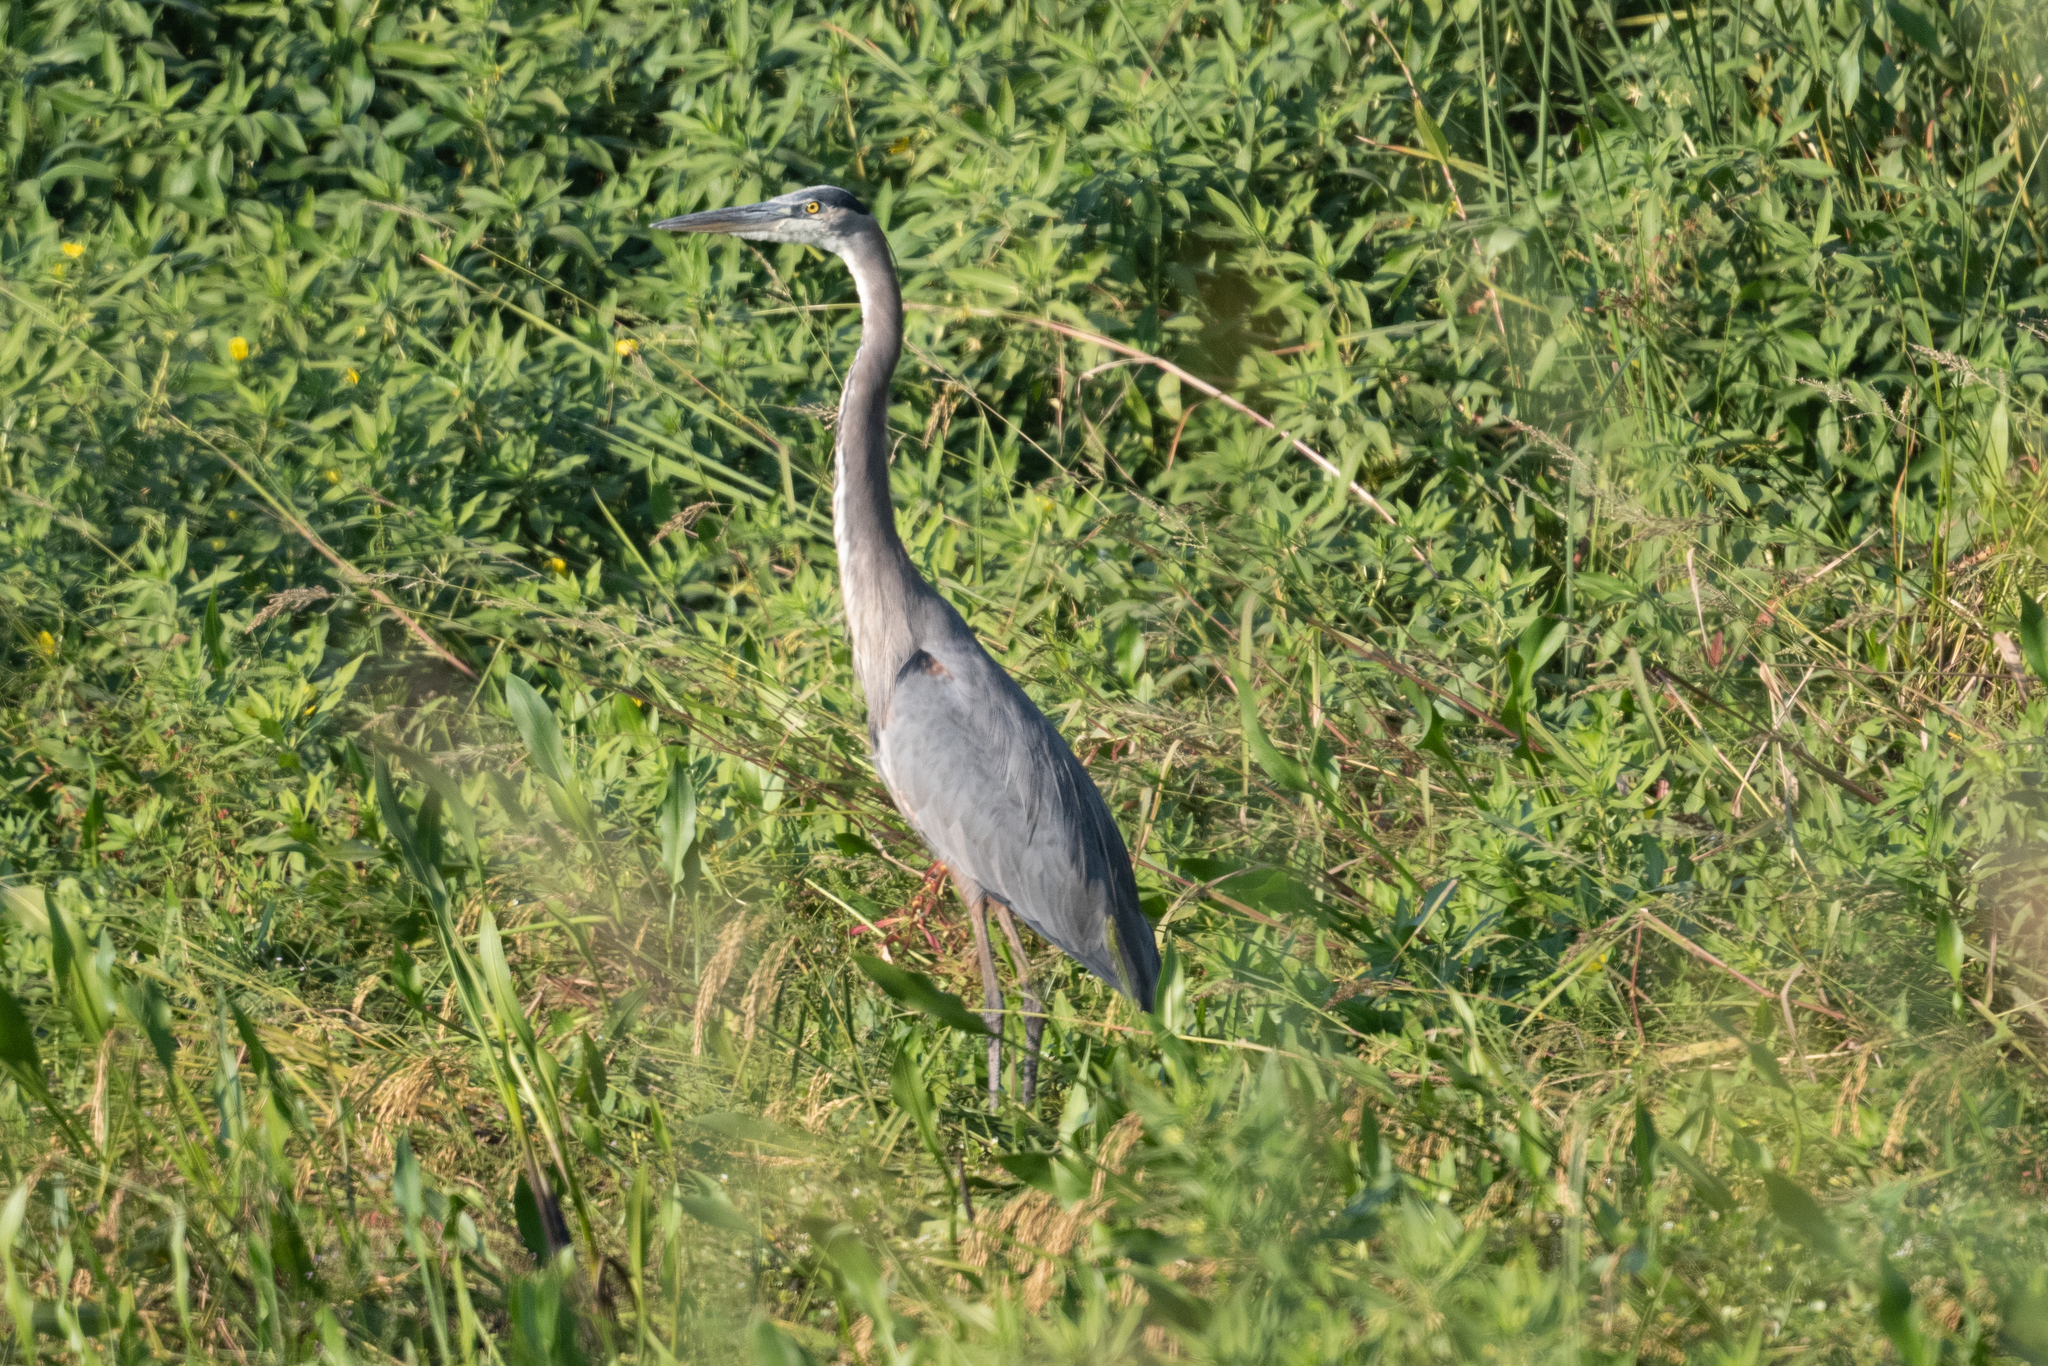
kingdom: Animalia
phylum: Chordata
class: Aves
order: Pelecaniformes
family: Ardeidae
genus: Ardea
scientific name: Ardea herodias
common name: Great blue heron
